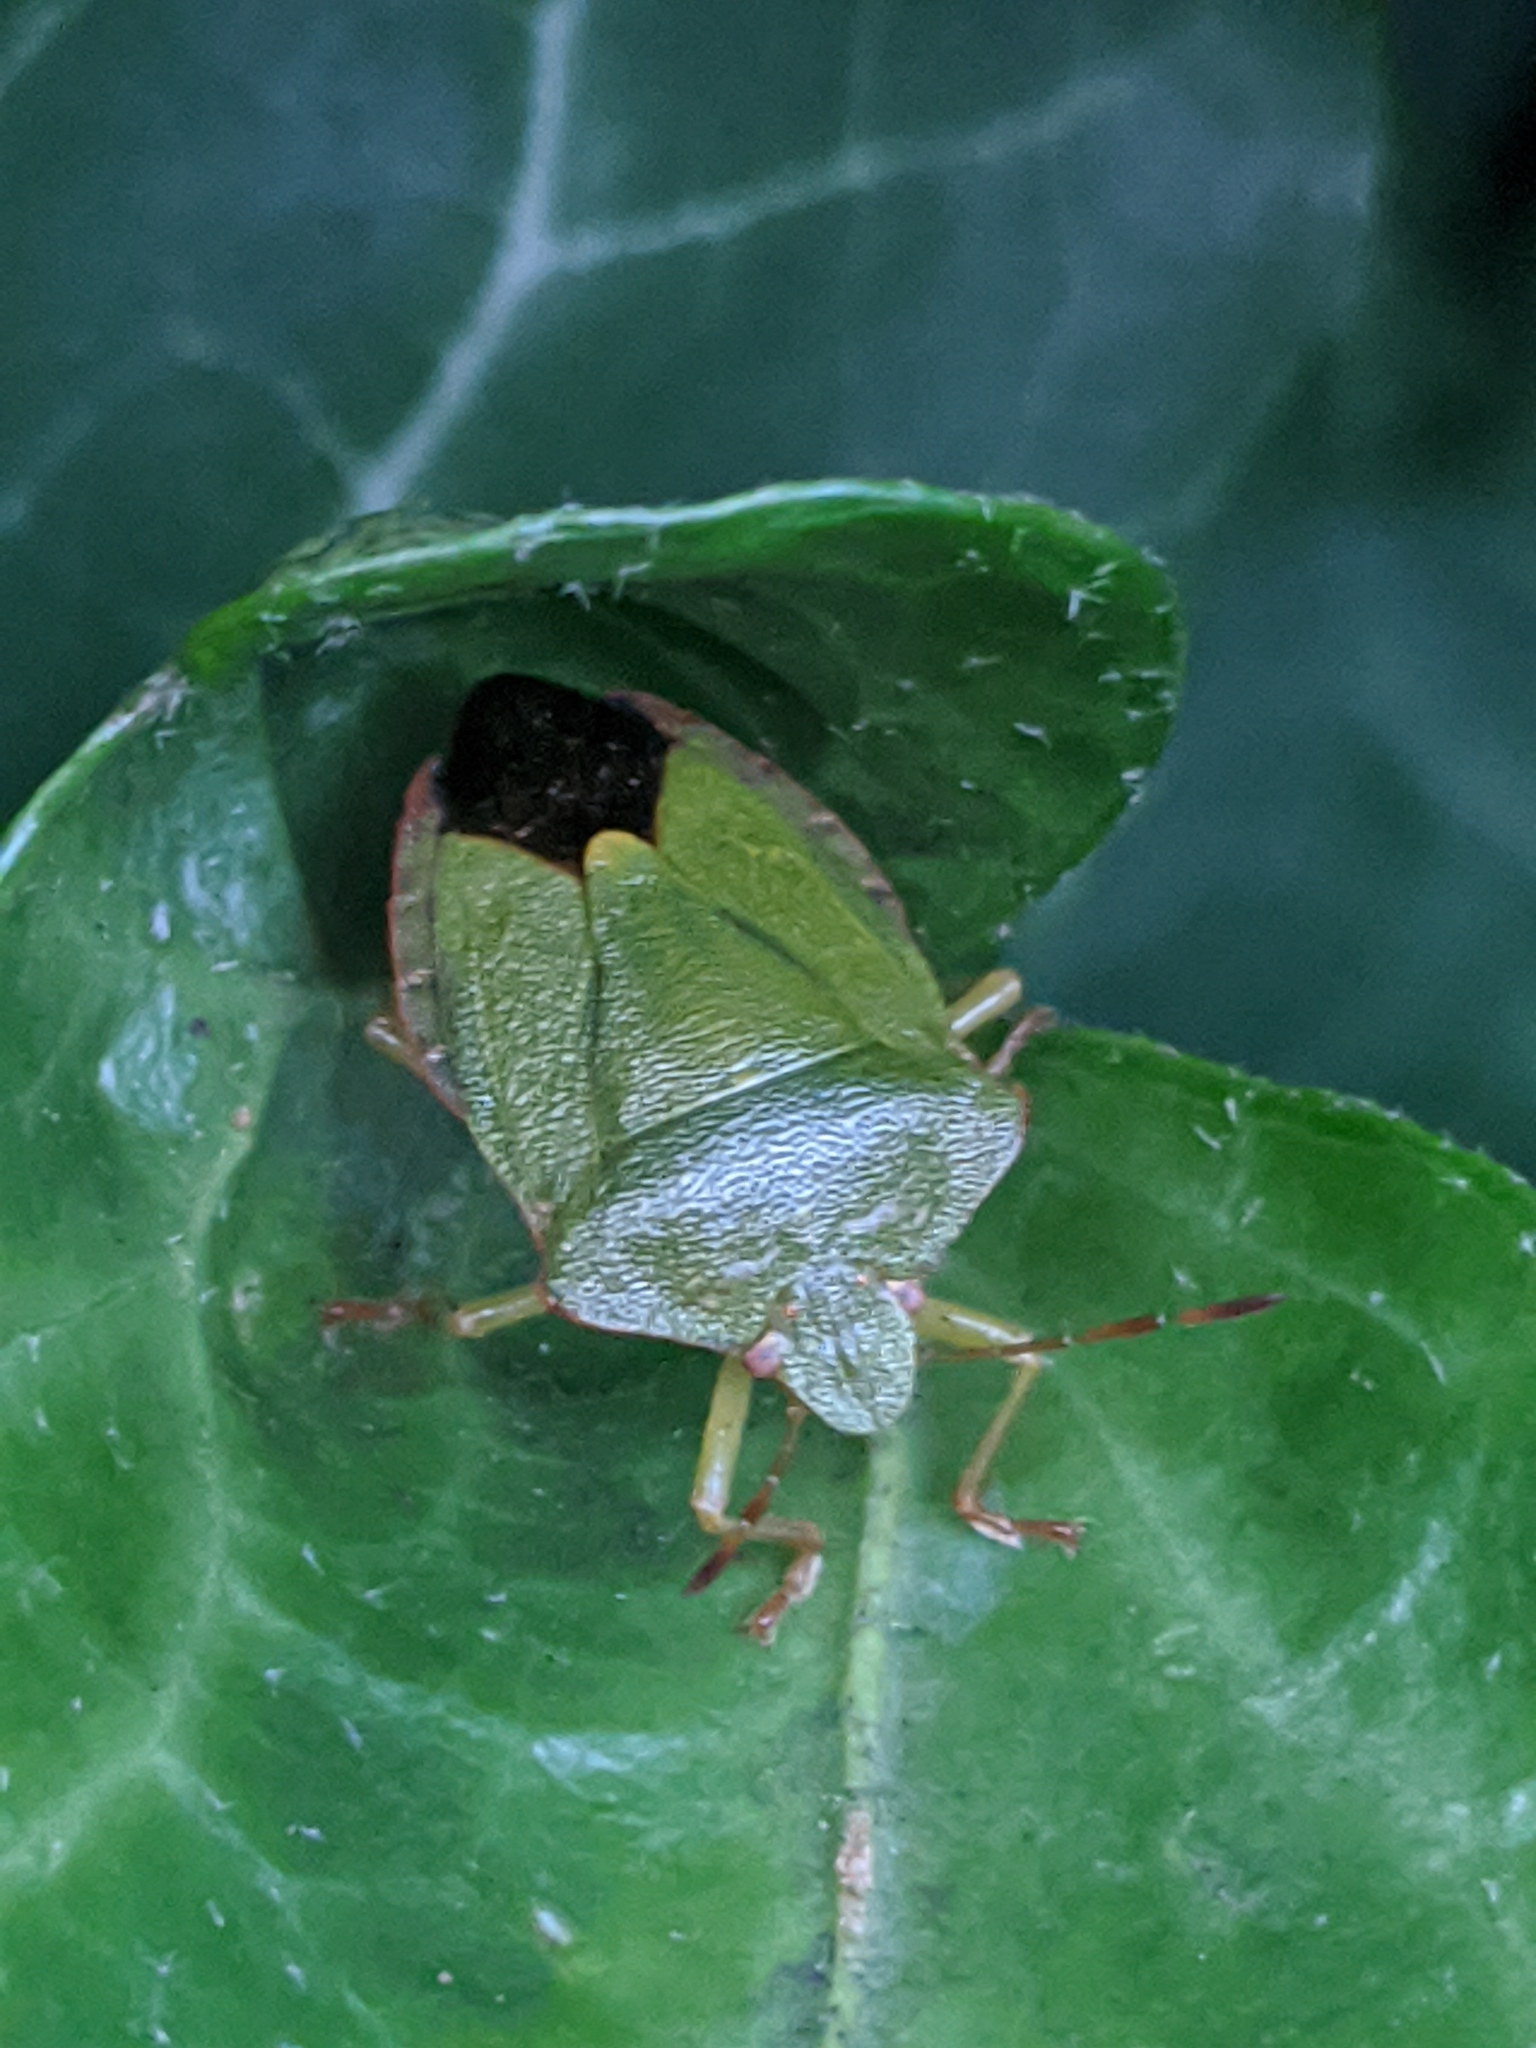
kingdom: Animalia
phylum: Arthropoda
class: Insecta
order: Hemiptera
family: Pentatomidae
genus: Palomena
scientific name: Palomena prasina
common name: Green shieldbug
